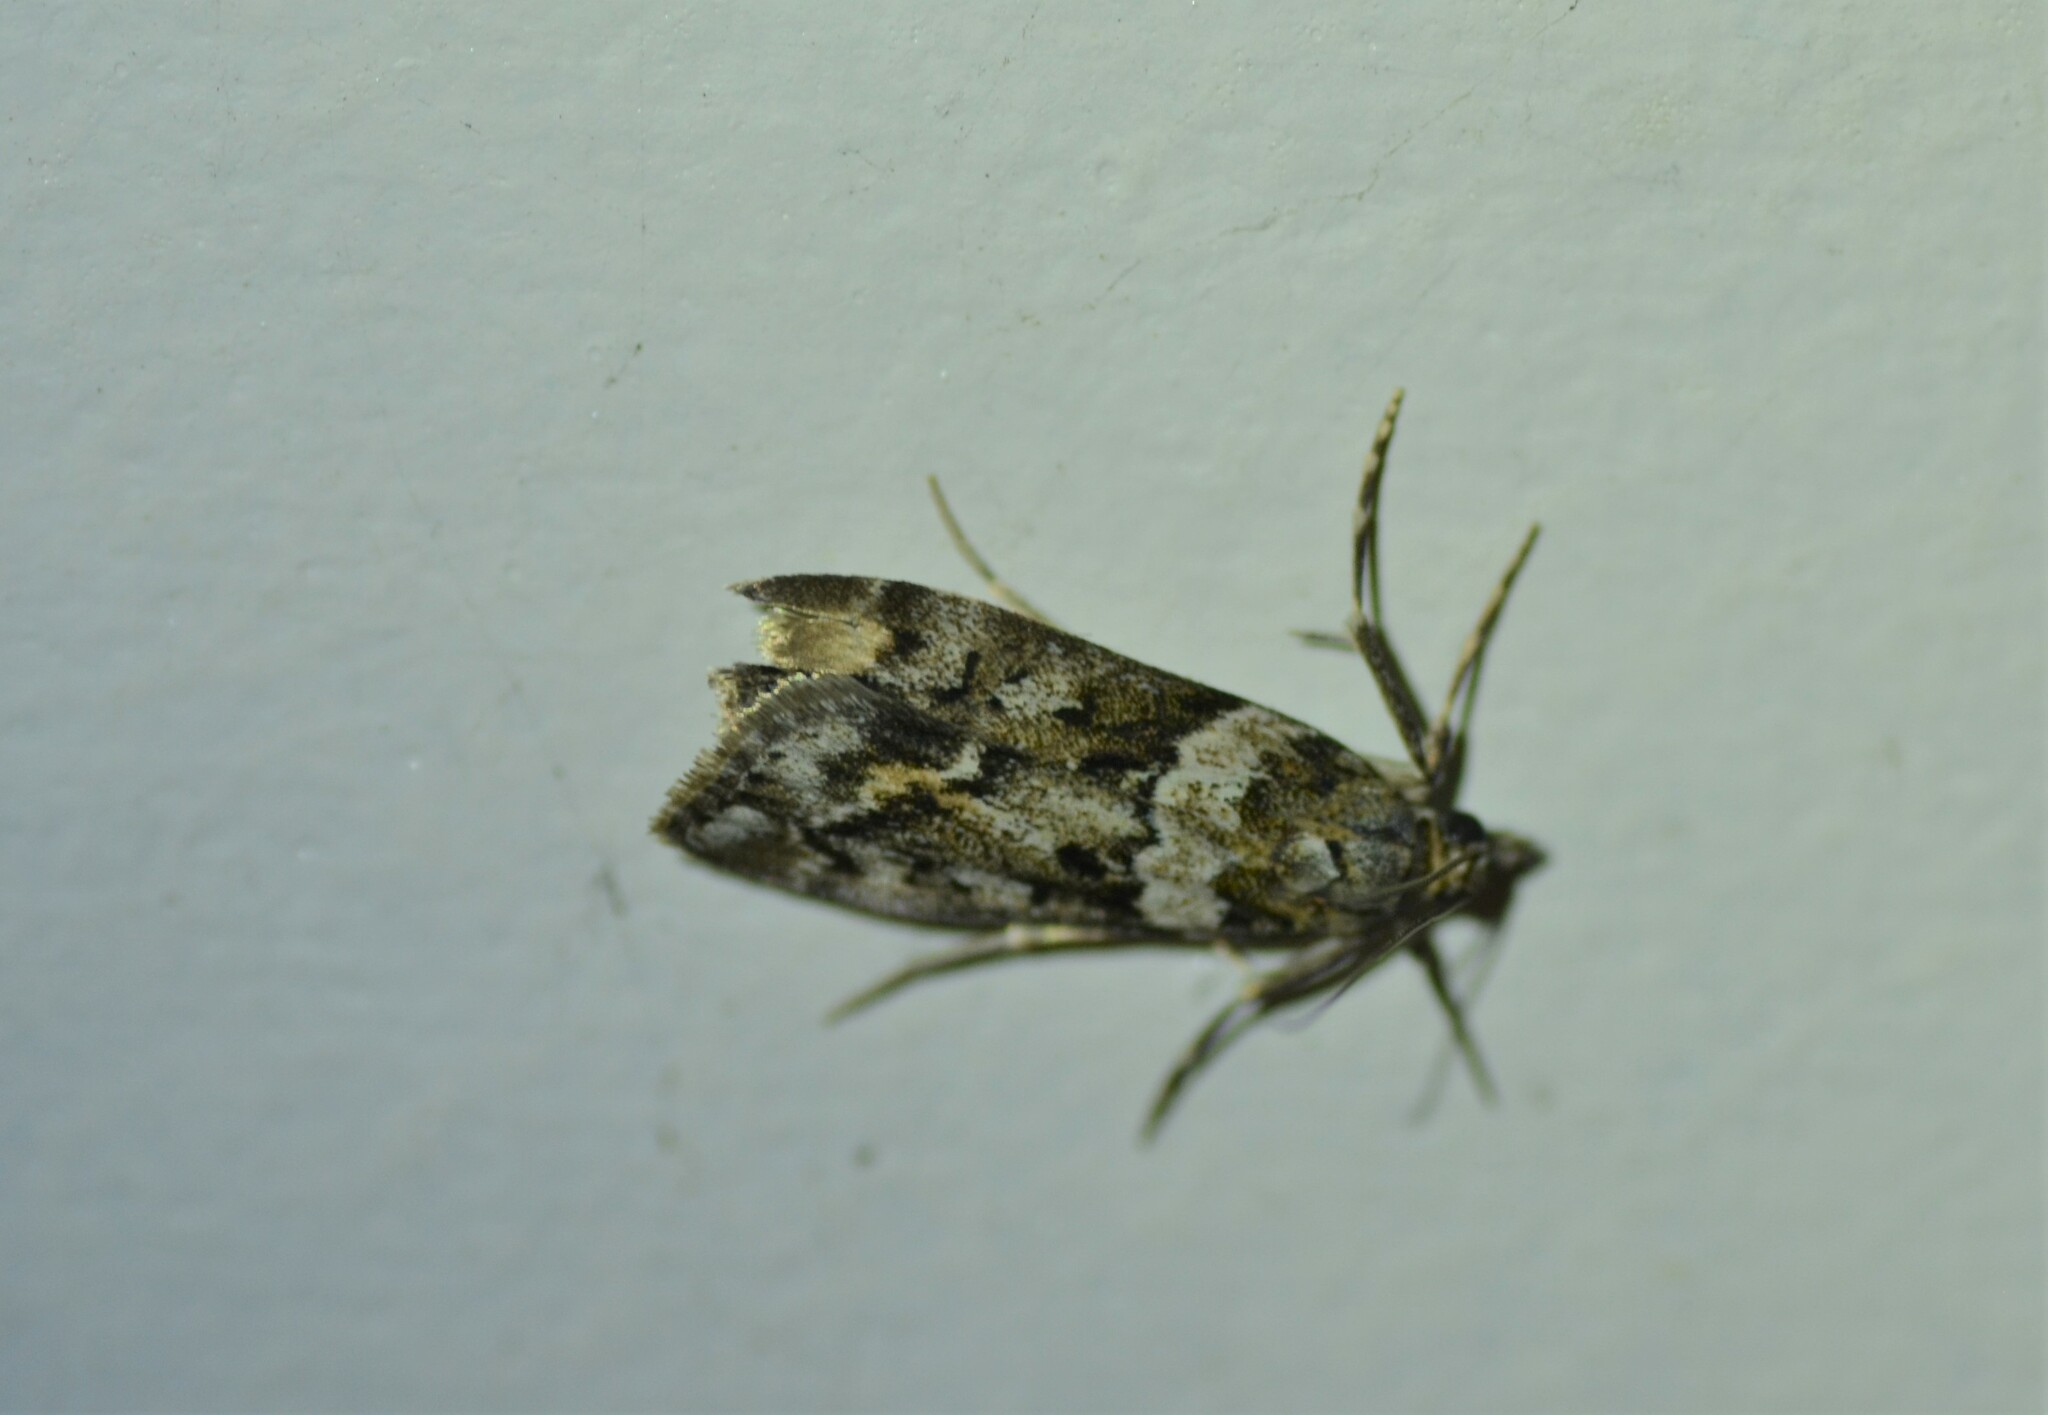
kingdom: Animalia
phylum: Arthropoda
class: Insecta
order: Lepidoptera
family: Crambidae
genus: Eudonia
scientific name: Eudonia submarginalis
